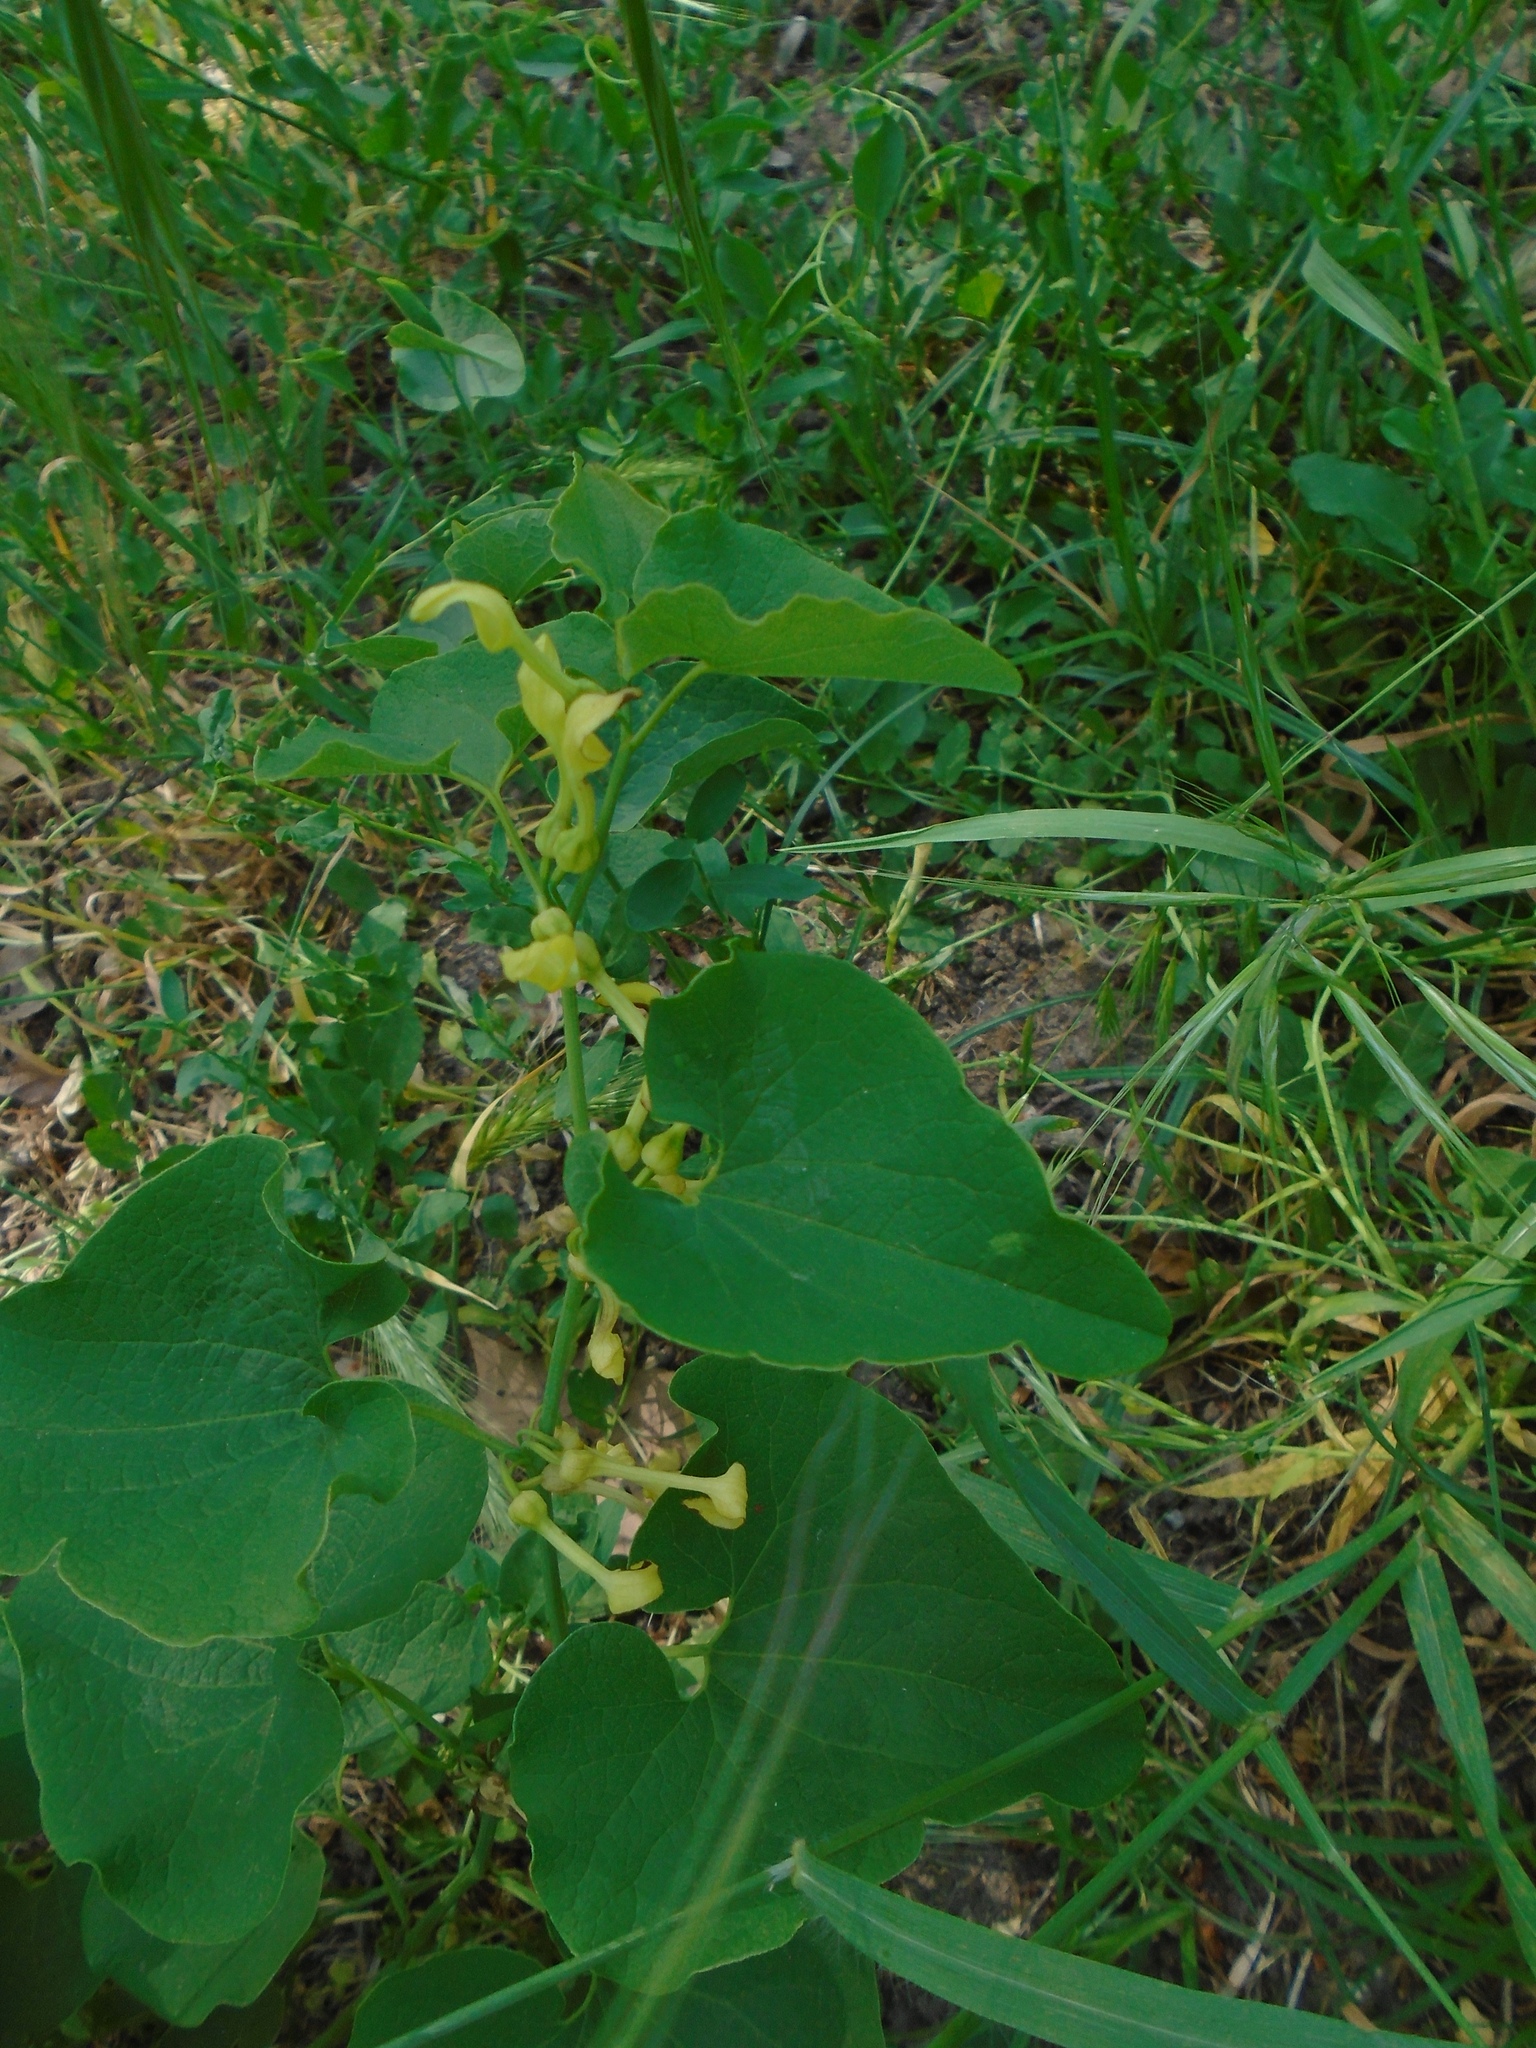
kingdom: Plantae
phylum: Tracheophyta
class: Magnoliopsida
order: Piperales
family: Aristolochiaceae
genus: Aristolochia
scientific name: Aristolochia clematitis
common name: Birthwort
